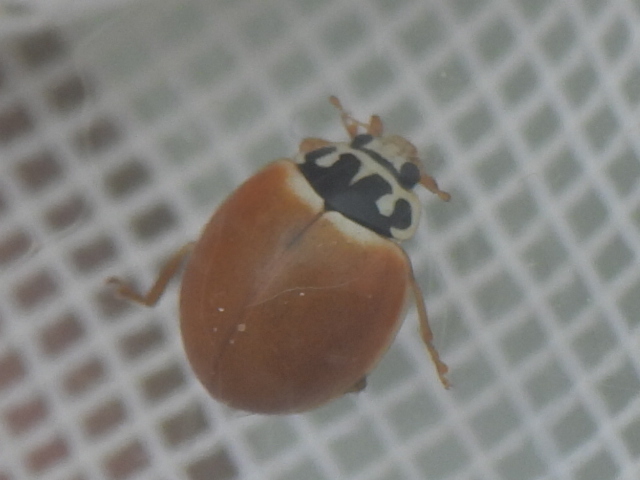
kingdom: Animalia
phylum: Arthropoda
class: Insecta
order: Coleoptera
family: Coccinellidae
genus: Cycloneda
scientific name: Cycloneda munda
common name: Polished lady beetle
